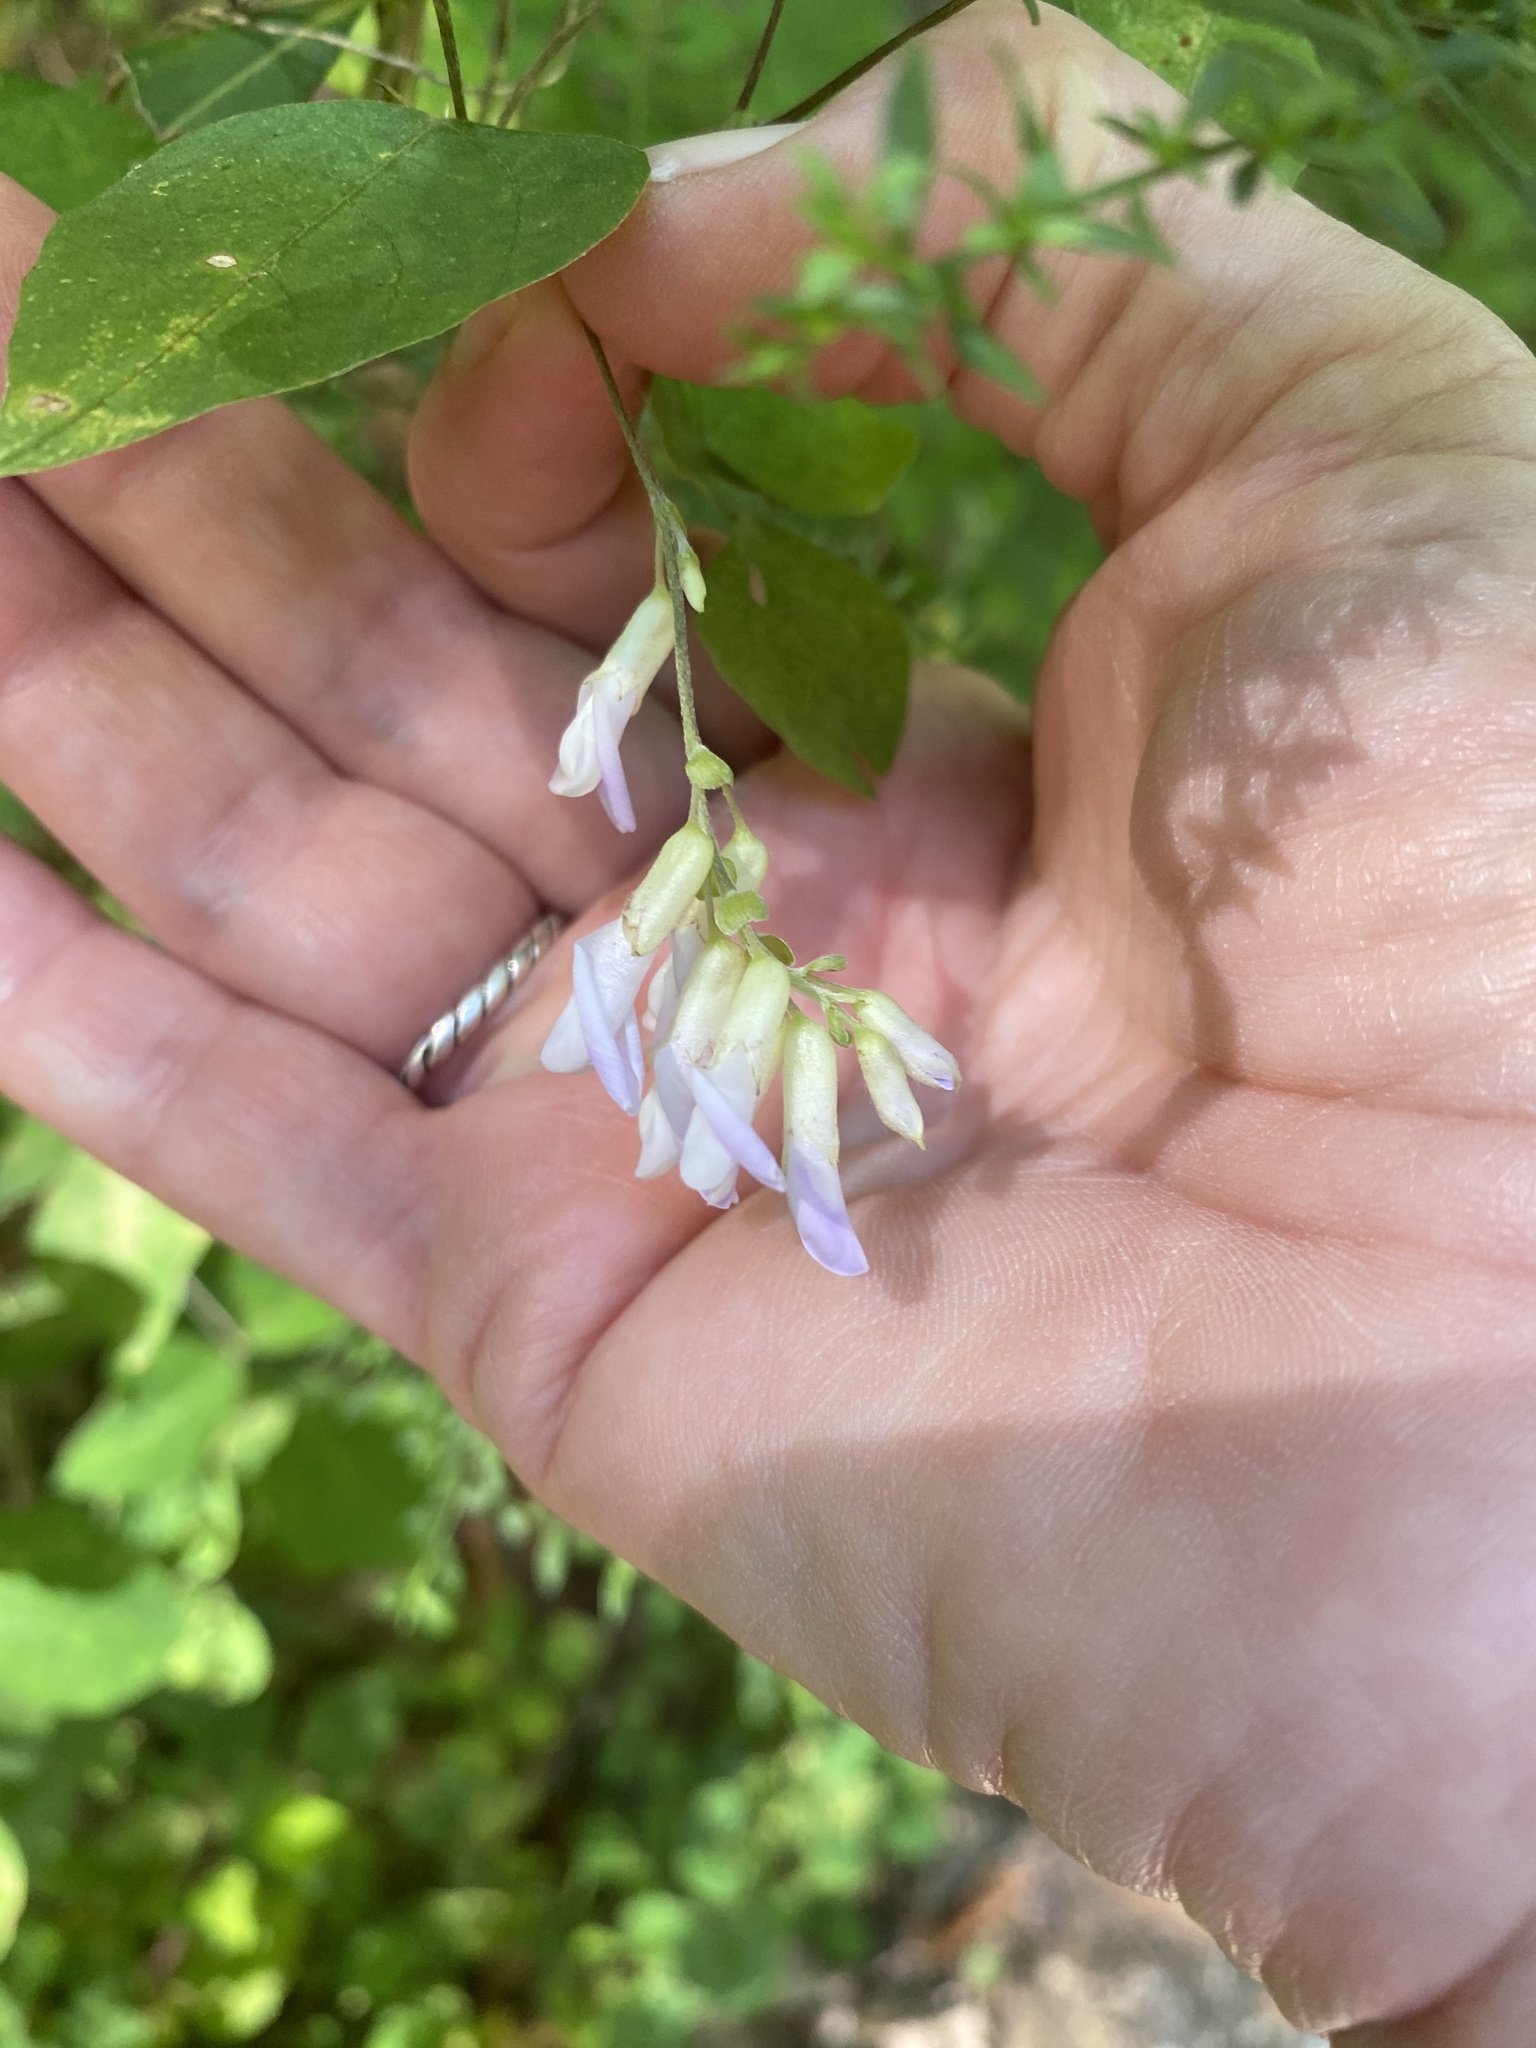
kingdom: Plantae
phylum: Tracheophyta
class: Magnoliopsida
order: Fabales
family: Fabaceae
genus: Amphicarpaea
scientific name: Amphicarpaea bracteata
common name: American hog peanut
